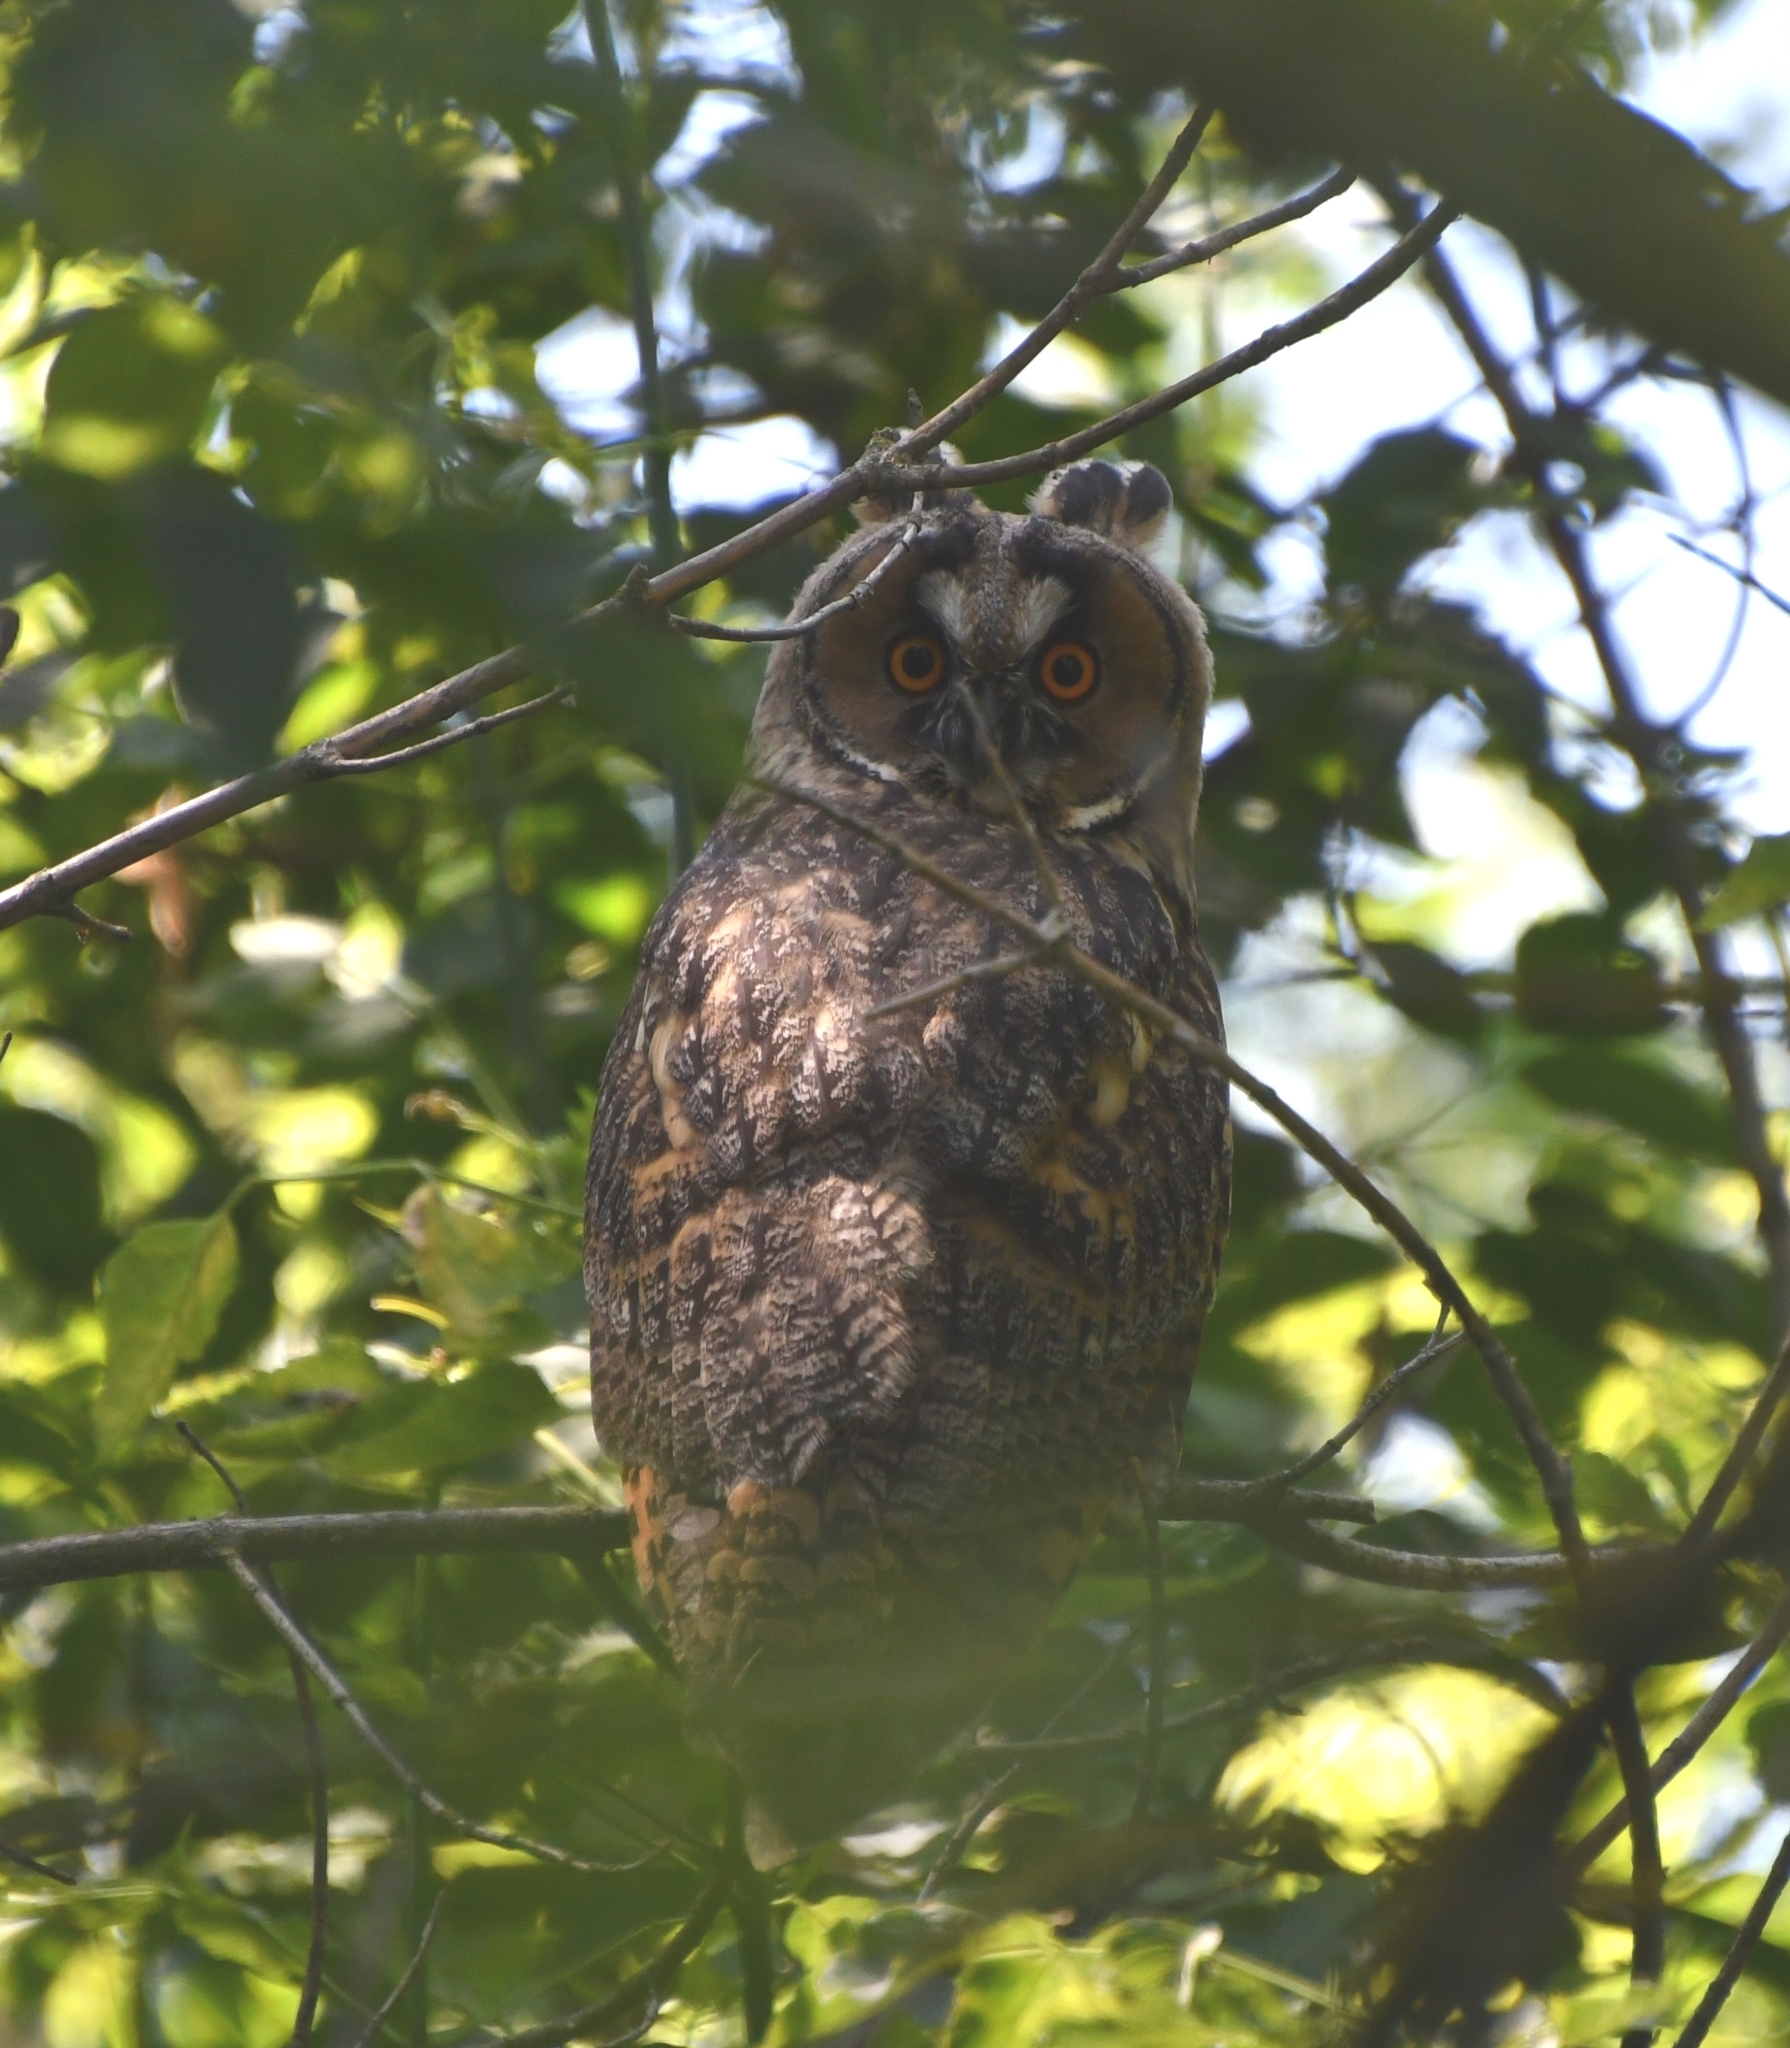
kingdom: Animalia
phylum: Chordata
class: Aves
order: Strigiformes
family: Strigidae
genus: Asio
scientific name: Asio otus
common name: Long-eared owl
